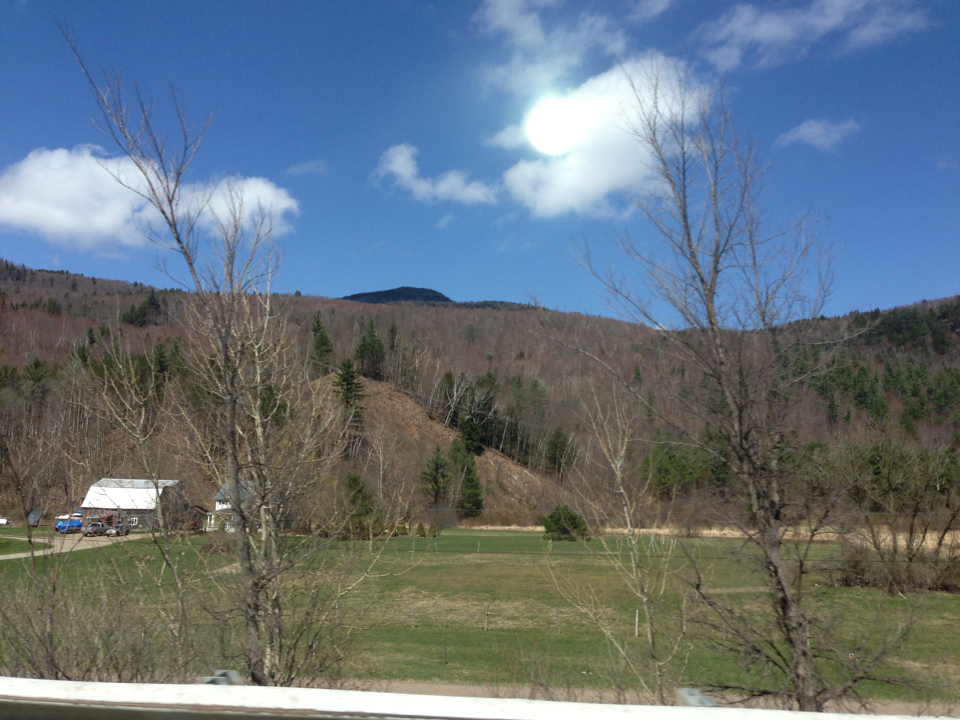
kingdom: Plantae
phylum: Tracheophyta
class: Magnoliopsida
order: Sapindales
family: Sapindaceae
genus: Acer
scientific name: Acer rubrum
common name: Red maple
